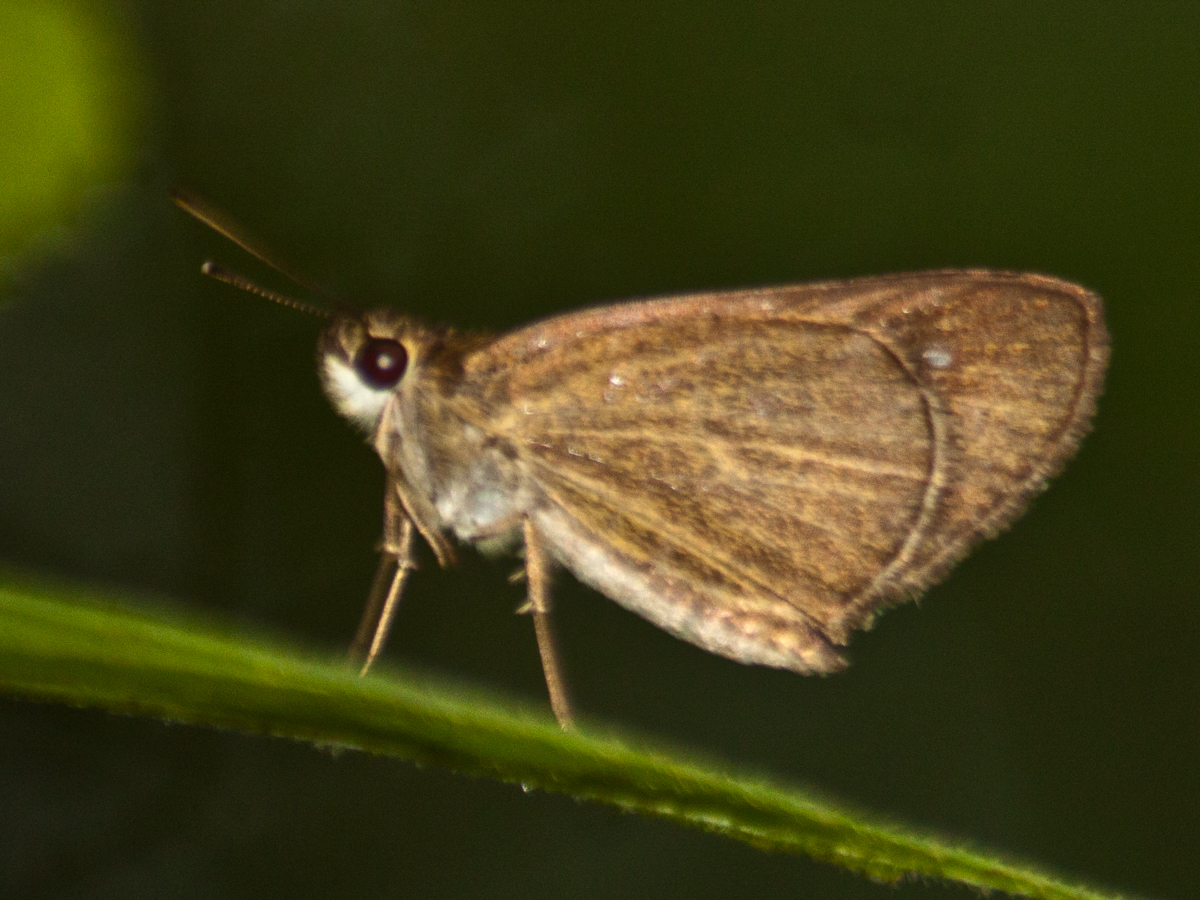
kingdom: Animalia
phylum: Arthropoda
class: Insecta
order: Lepidoptera
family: Hesperiidae
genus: Suada
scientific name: Suada swerga
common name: Grass bob
